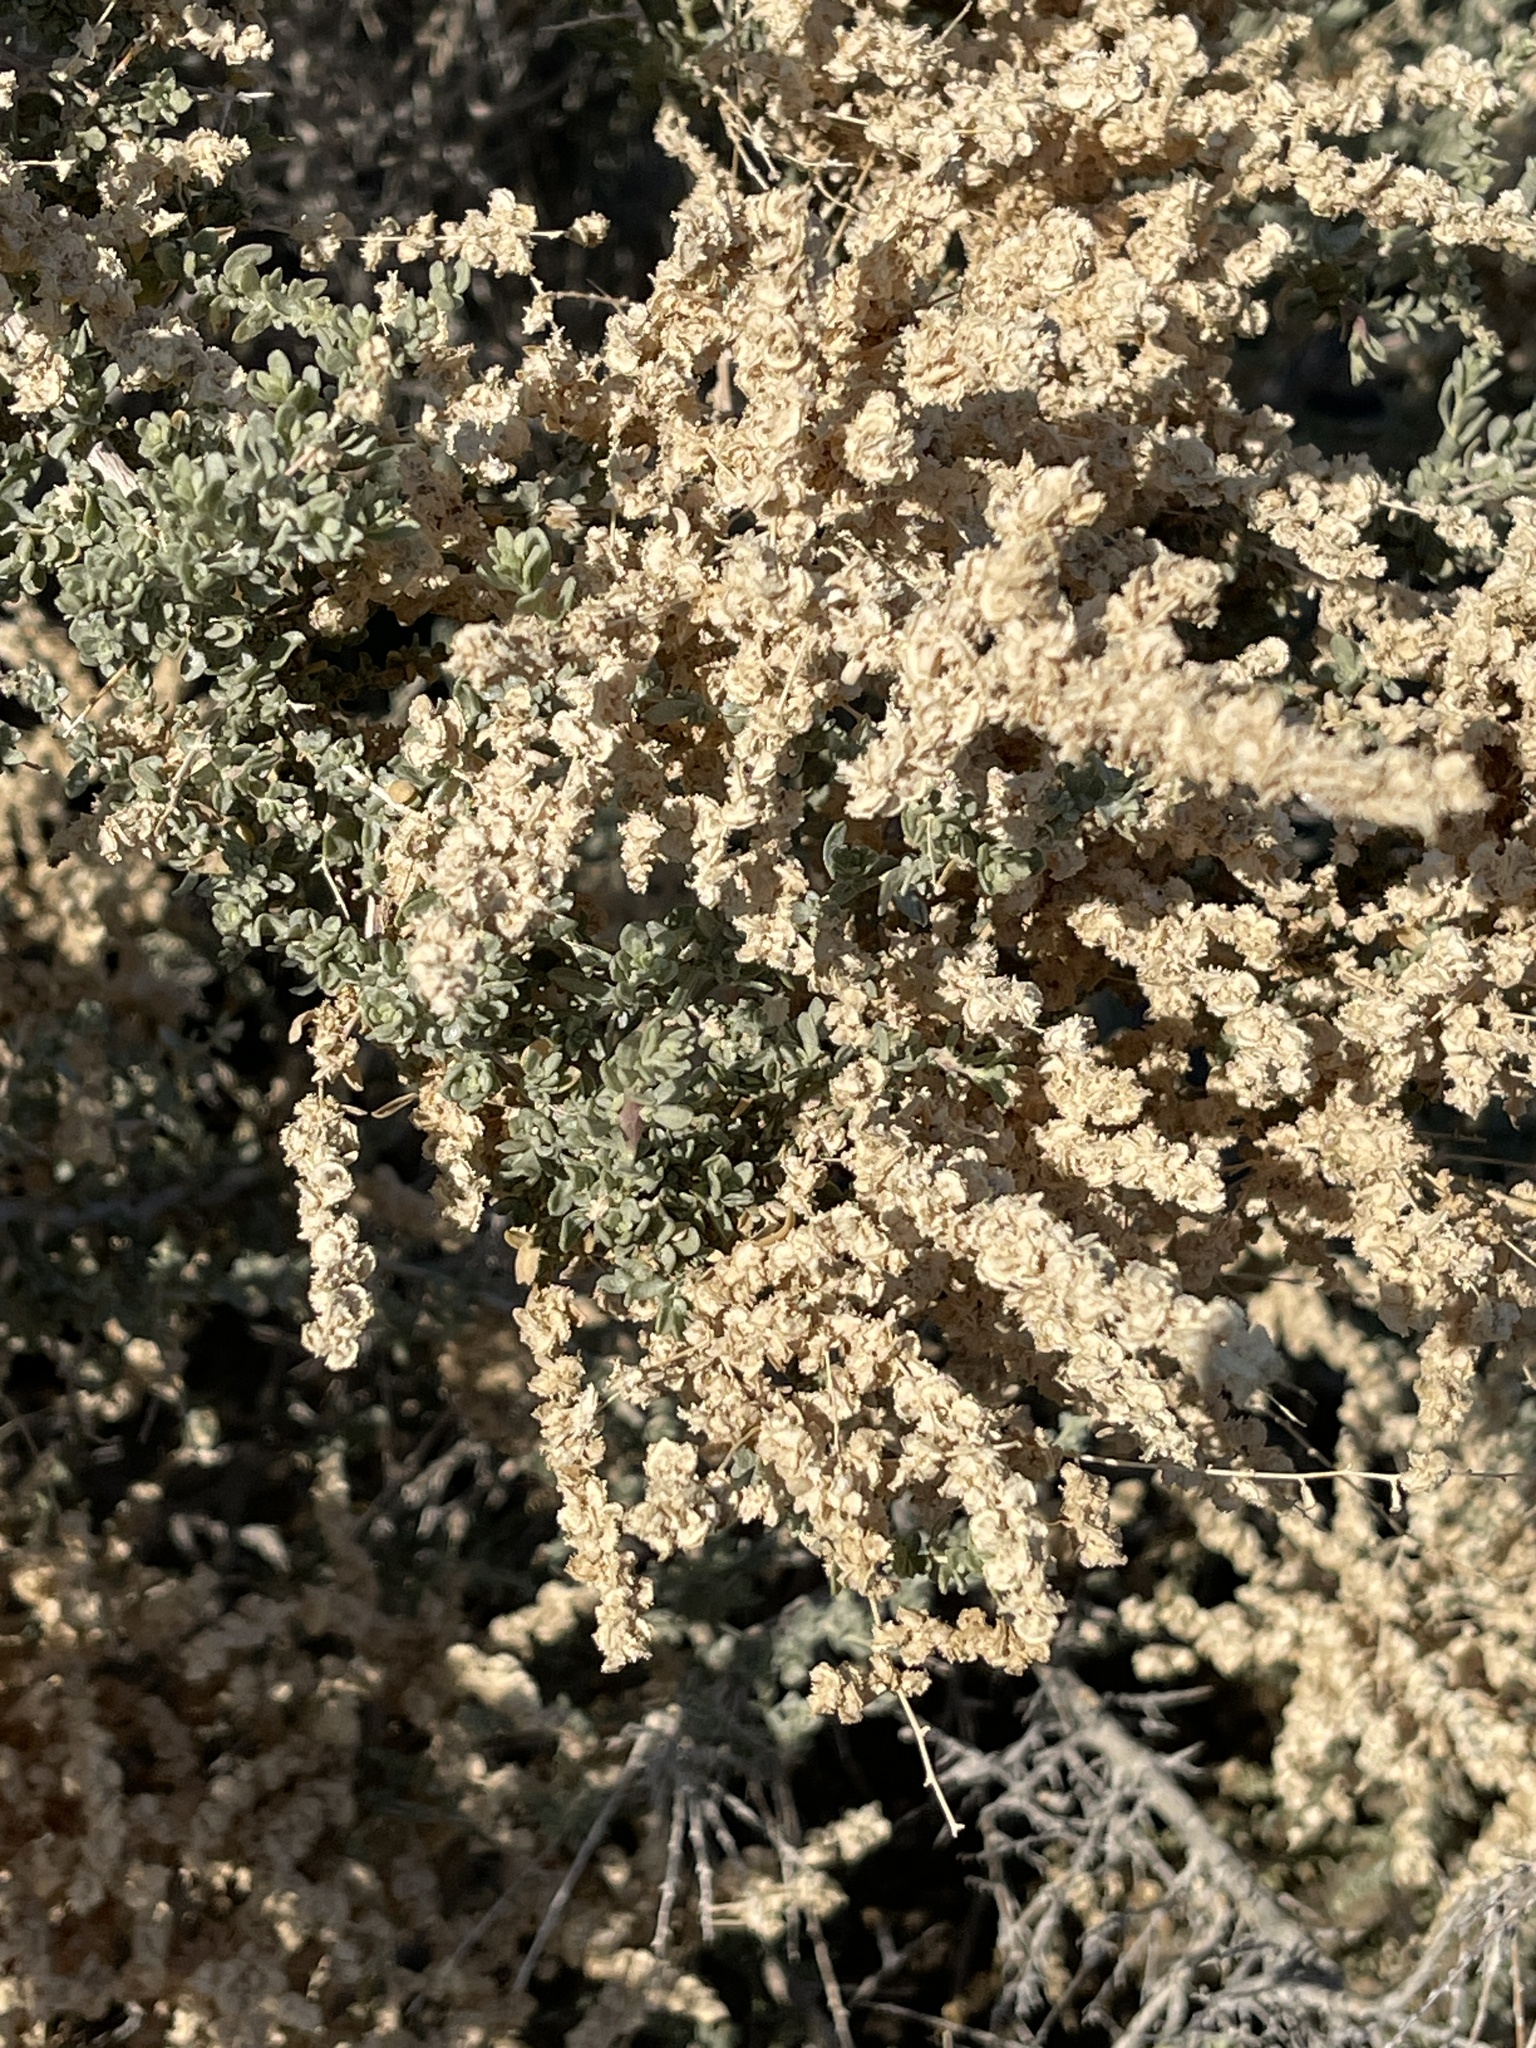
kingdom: Plantae
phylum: Tracheophyta
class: Magnoliopsida
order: Caryophyllales
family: Amaranthaceae
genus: Atriplex
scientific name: Atriplex polycarpa
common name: Desert saltbush
